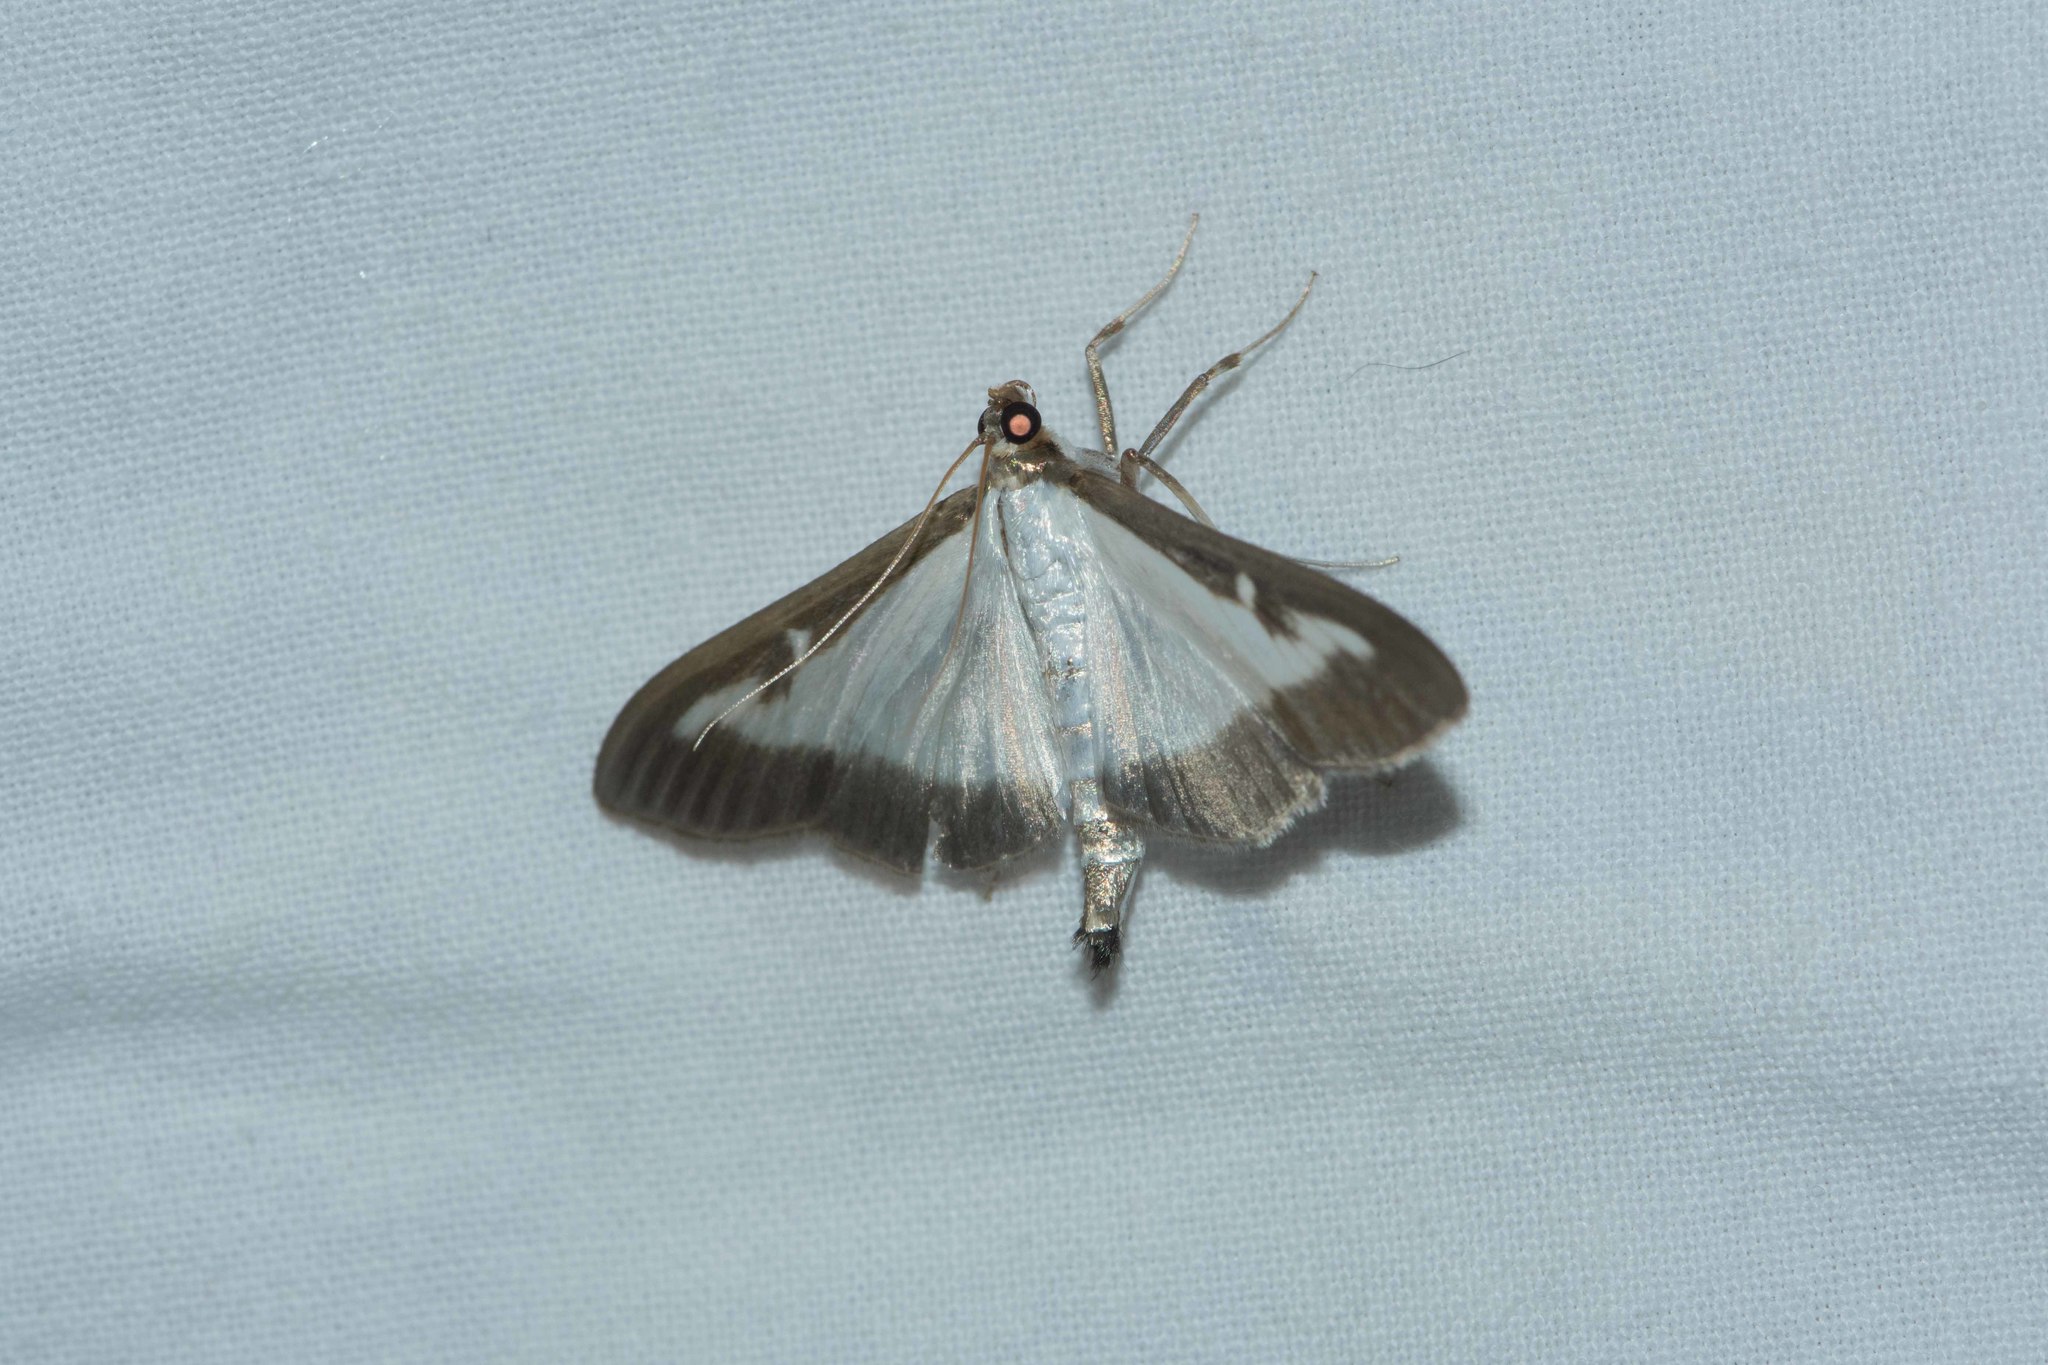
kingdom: Animalia
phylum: Arthropoda
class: Insecta
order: Lepidoptera
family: Crambidae
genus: Cydalima
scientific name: Cydalima perspectalis
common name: Box tree moth
